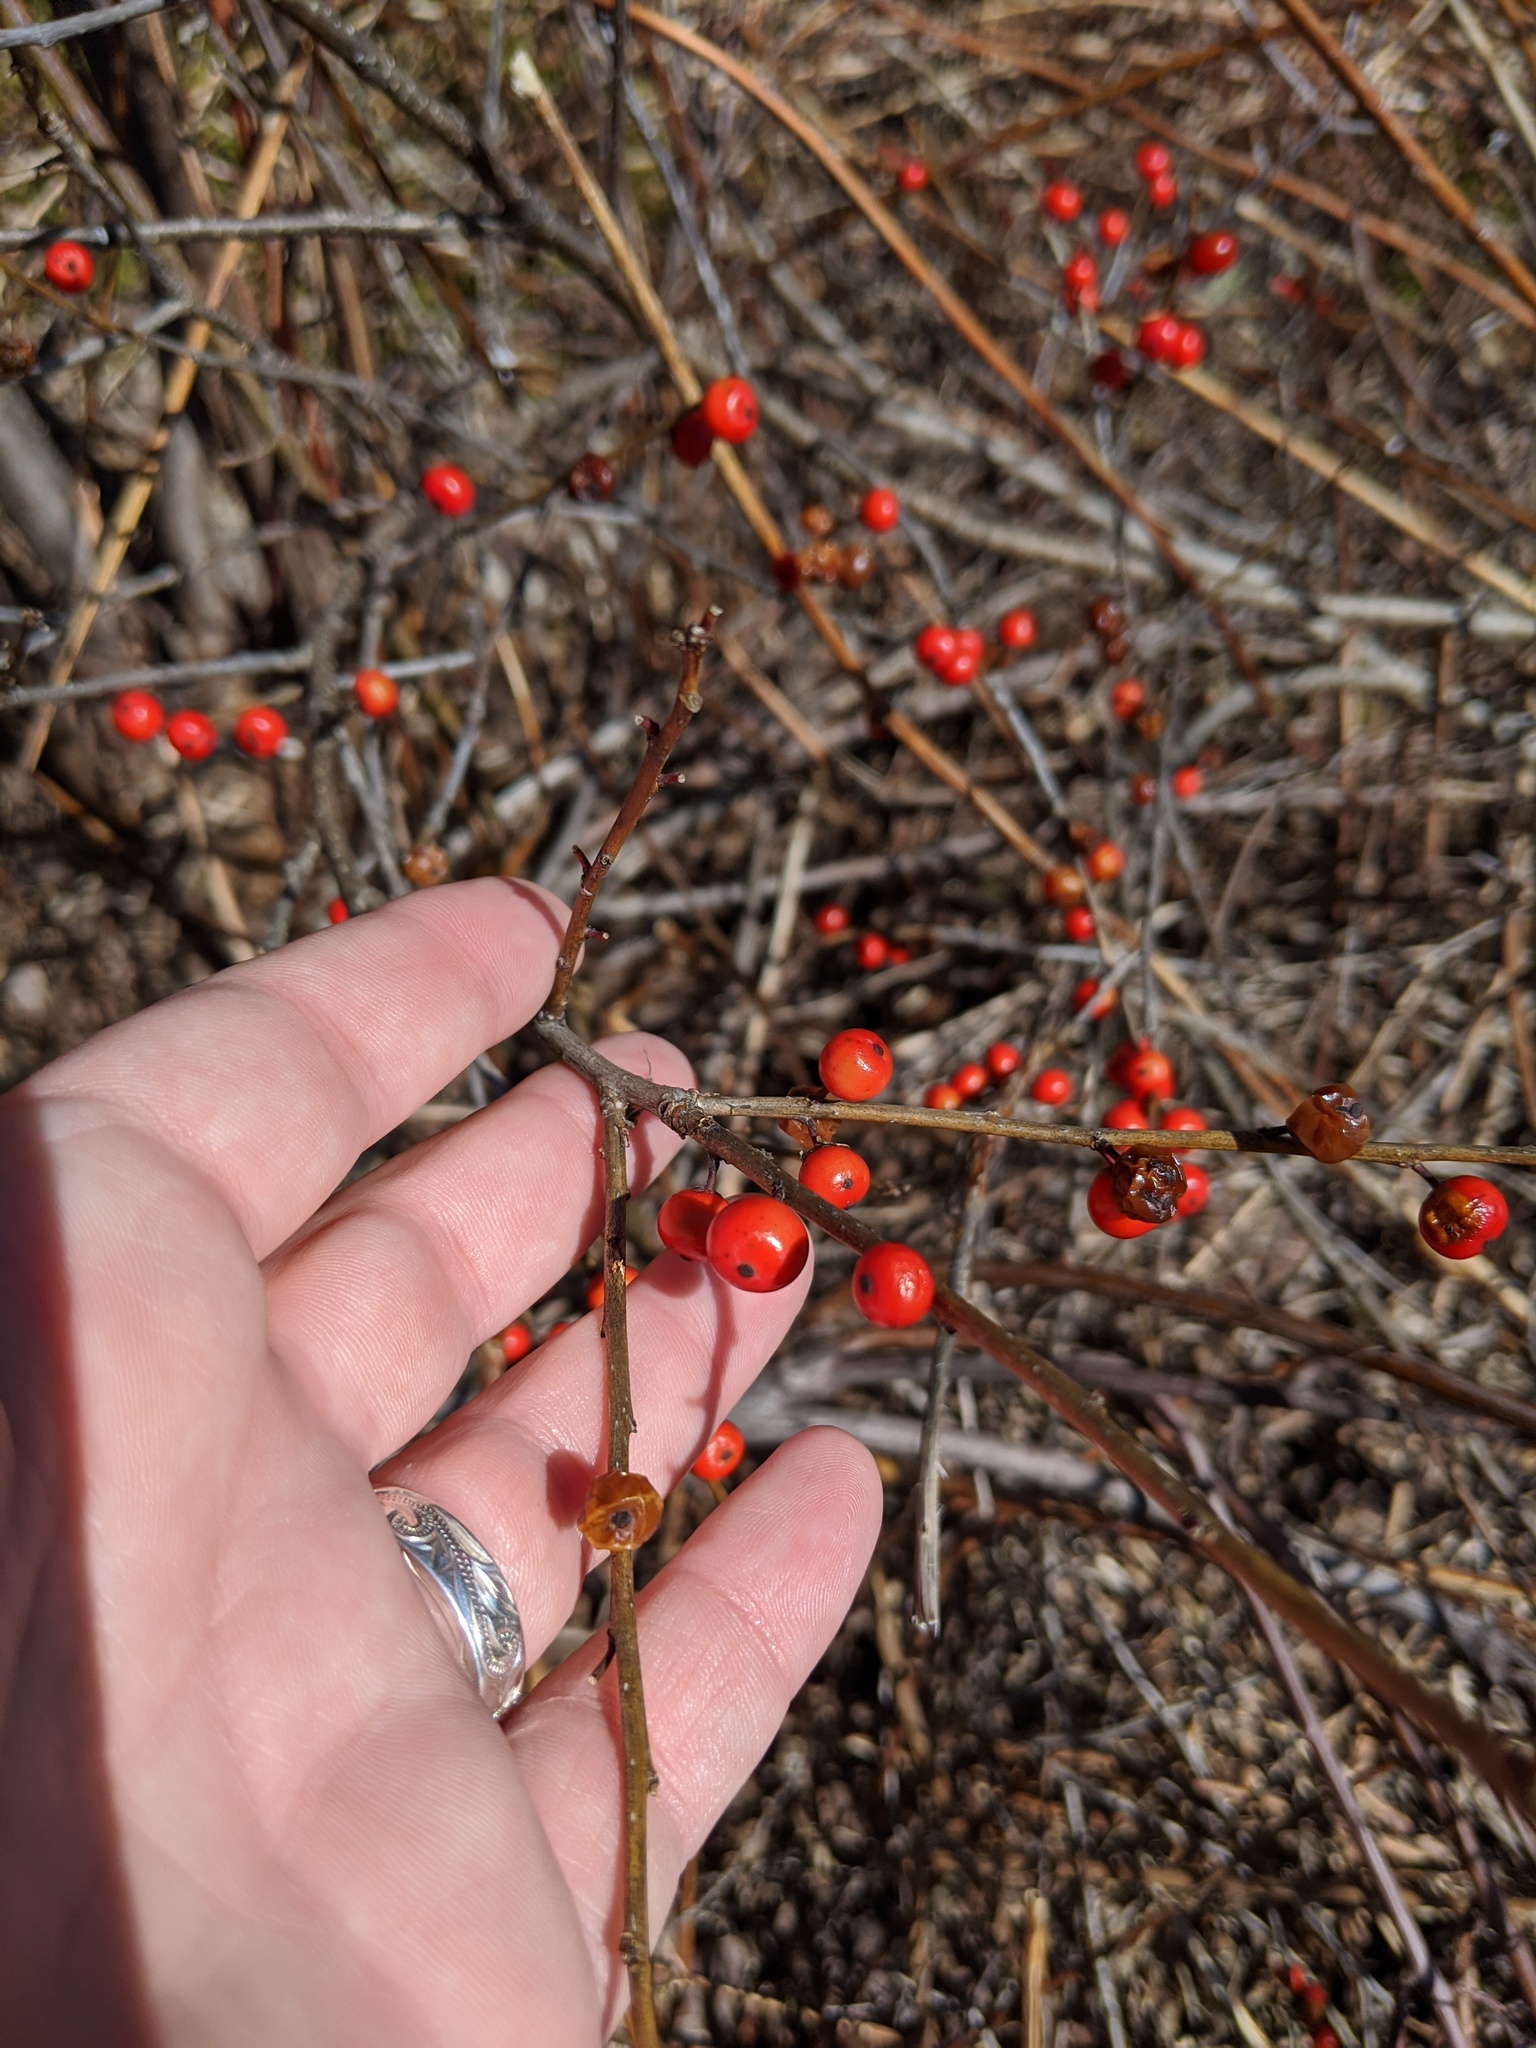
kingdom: Plantae
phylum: Tracheophyta
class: Magnoliopsida
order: Aquifoliales
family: Aquifoliaceae
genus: Ilex
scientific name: Ilex verticillata
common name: Virginia winterberry
